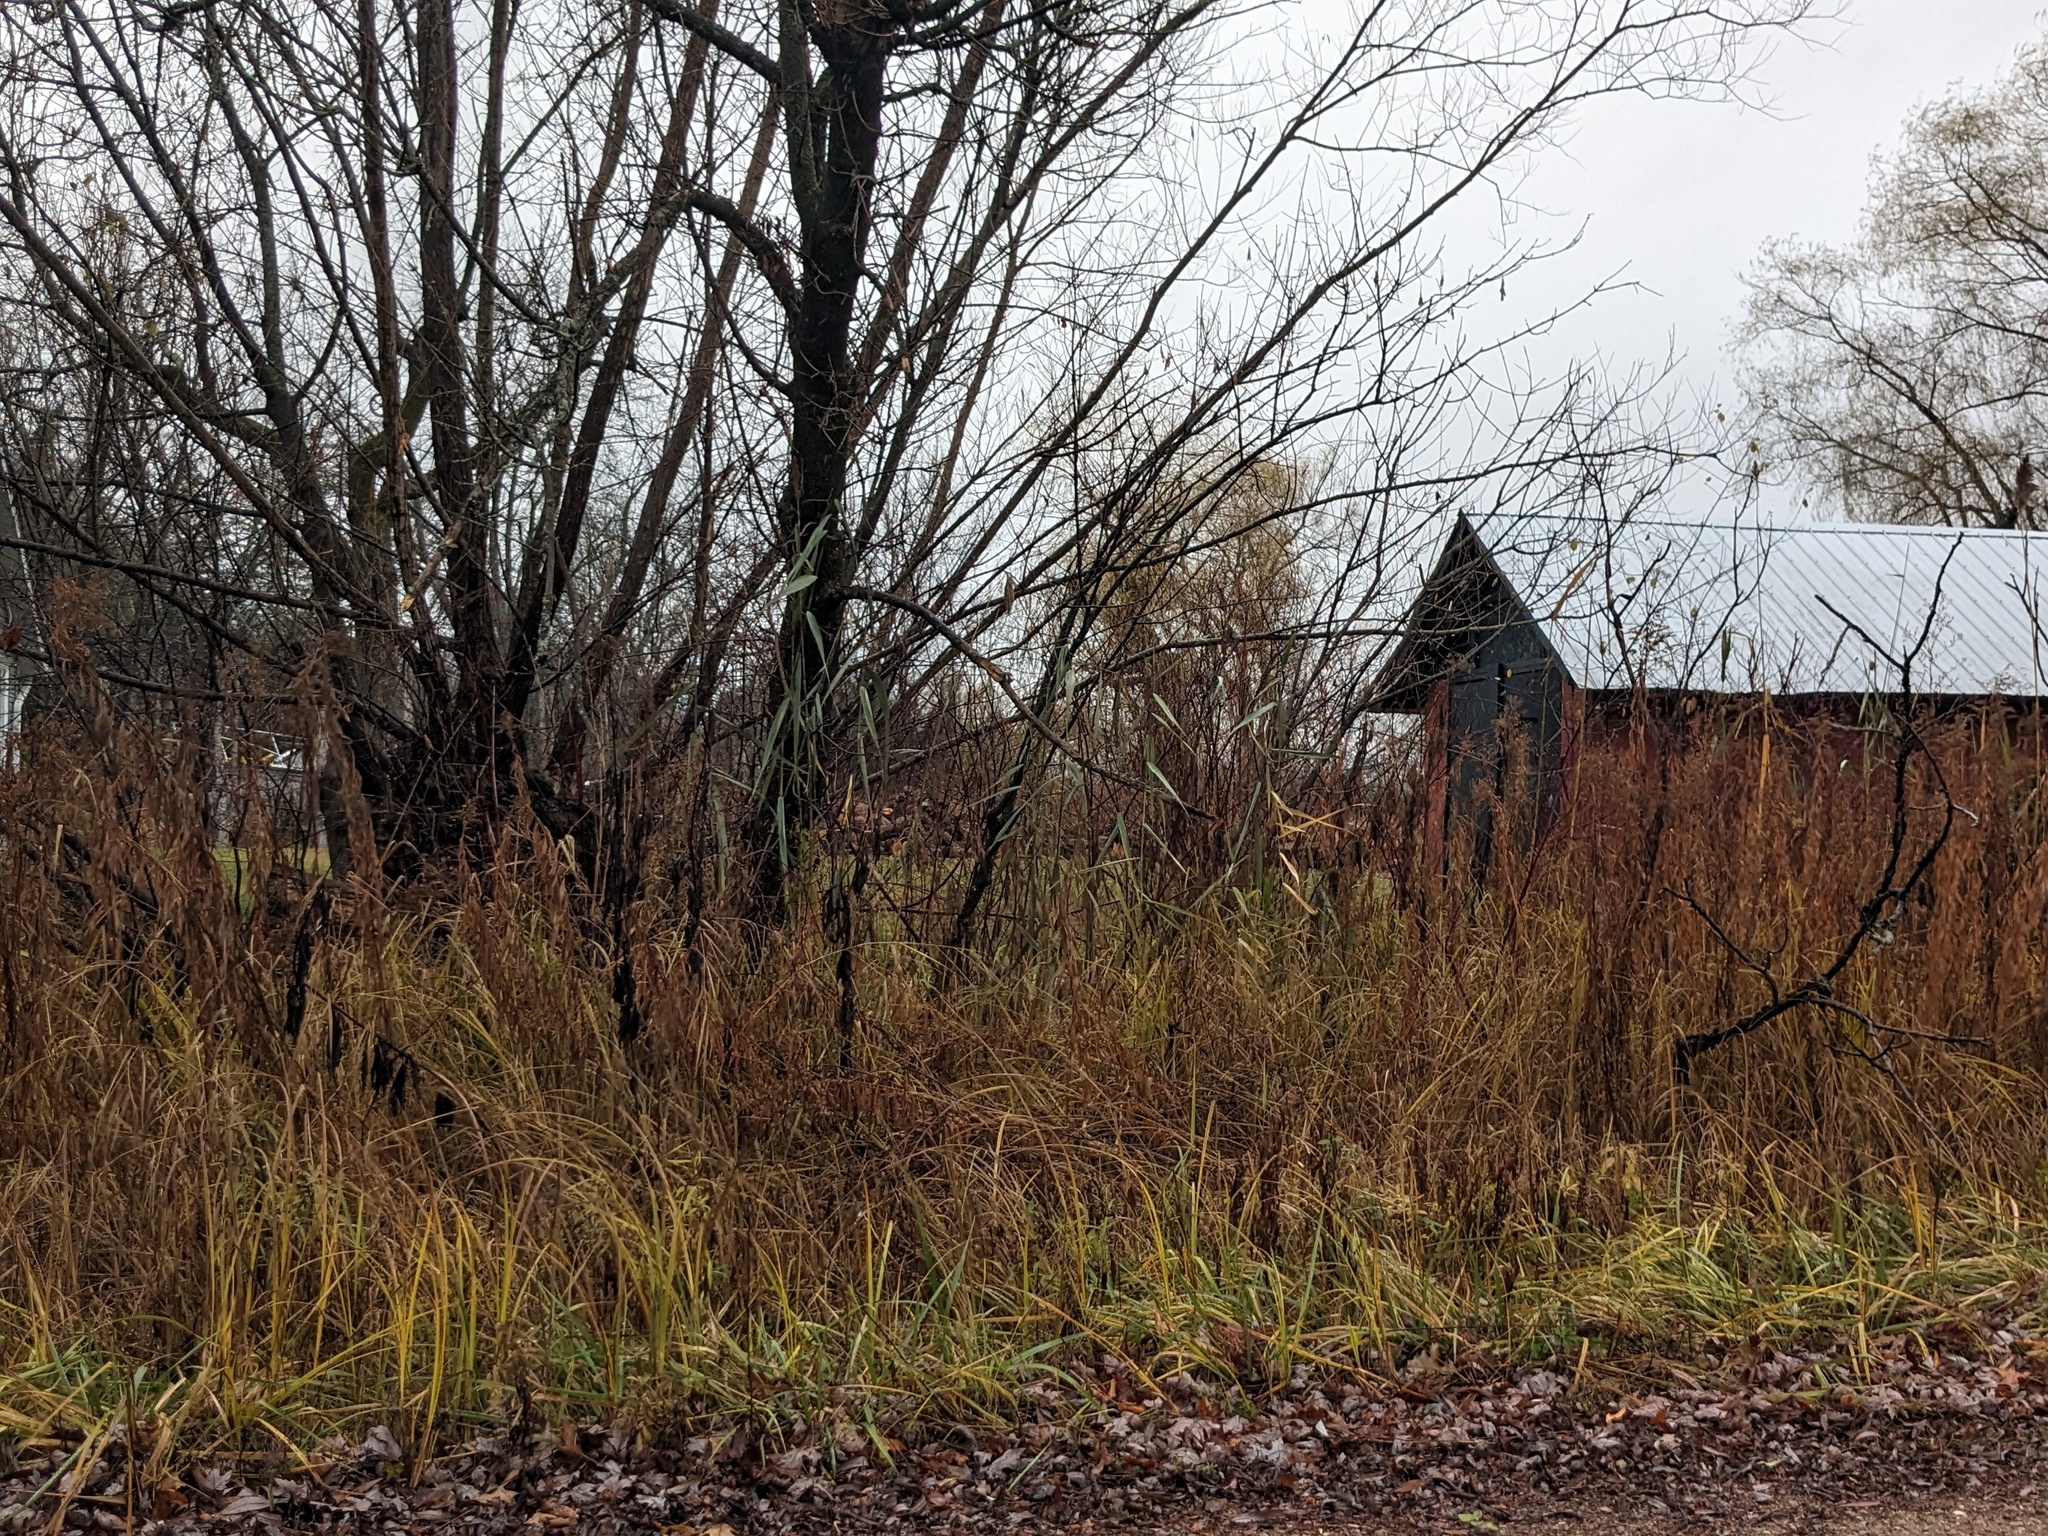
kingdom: Plantae
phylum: Tracheophyta
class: Liliopsida
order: Poales
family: Poaceae
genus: Phragmites
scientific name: Phragmites australis
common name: Common reed
